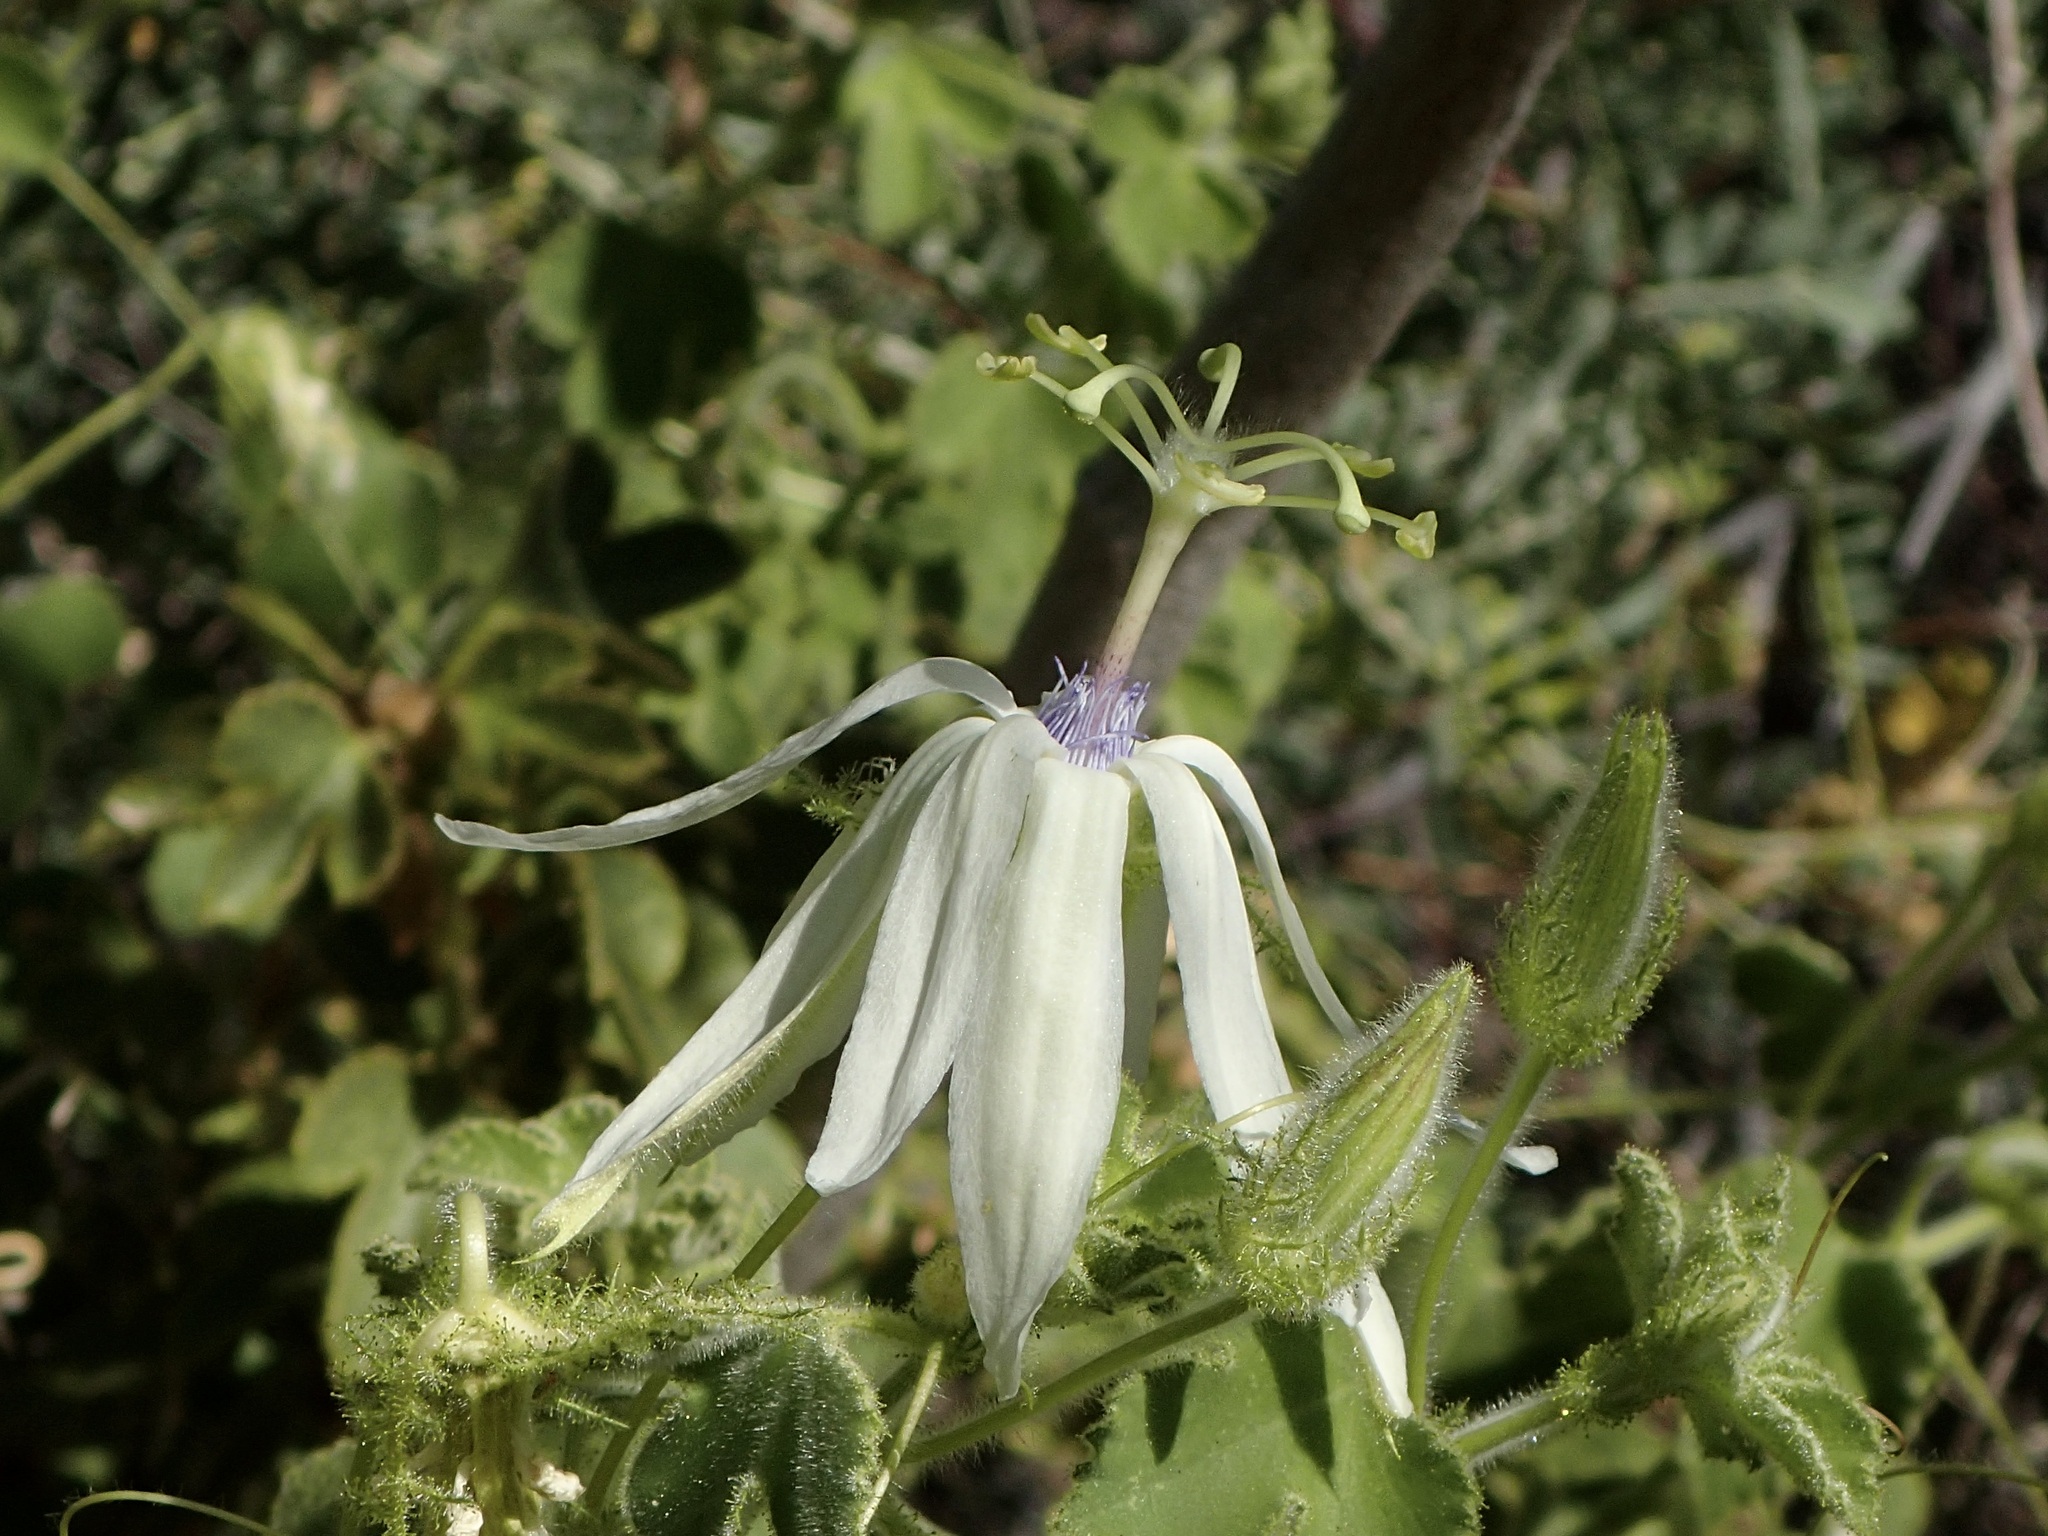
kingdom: Plantae
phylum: Tracheophyta
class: Magnoliopsida
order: Malpighiales
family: Passifloraceae
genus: Passiflora
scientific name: Passiflora palmeri
